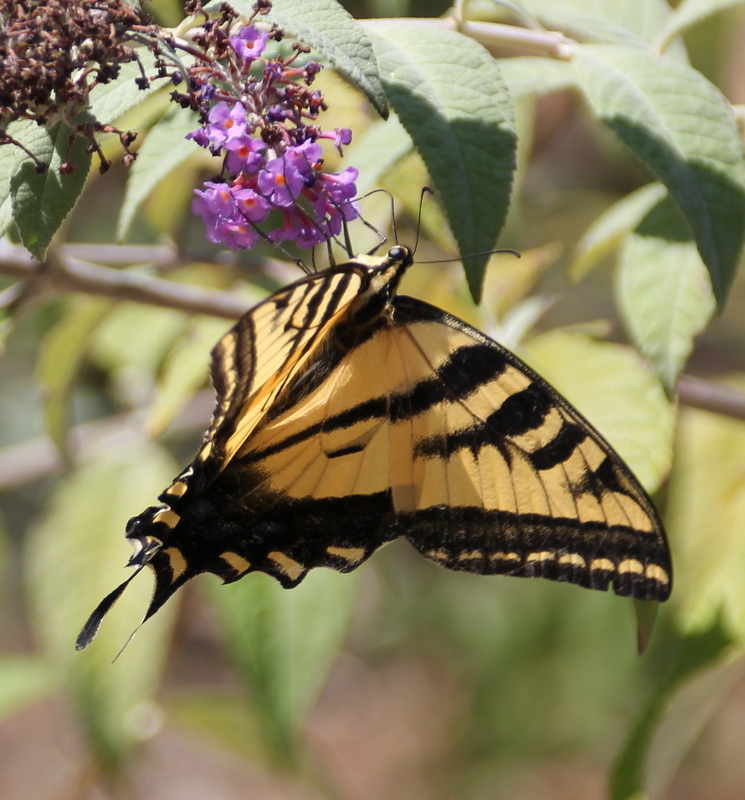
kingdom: Animalia
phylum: Arthropoda
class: Insecta
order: Lepidoptera
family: Papilionidae
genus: Papilio
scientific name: Papilio rutulus
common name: Western tiger swallowtail
